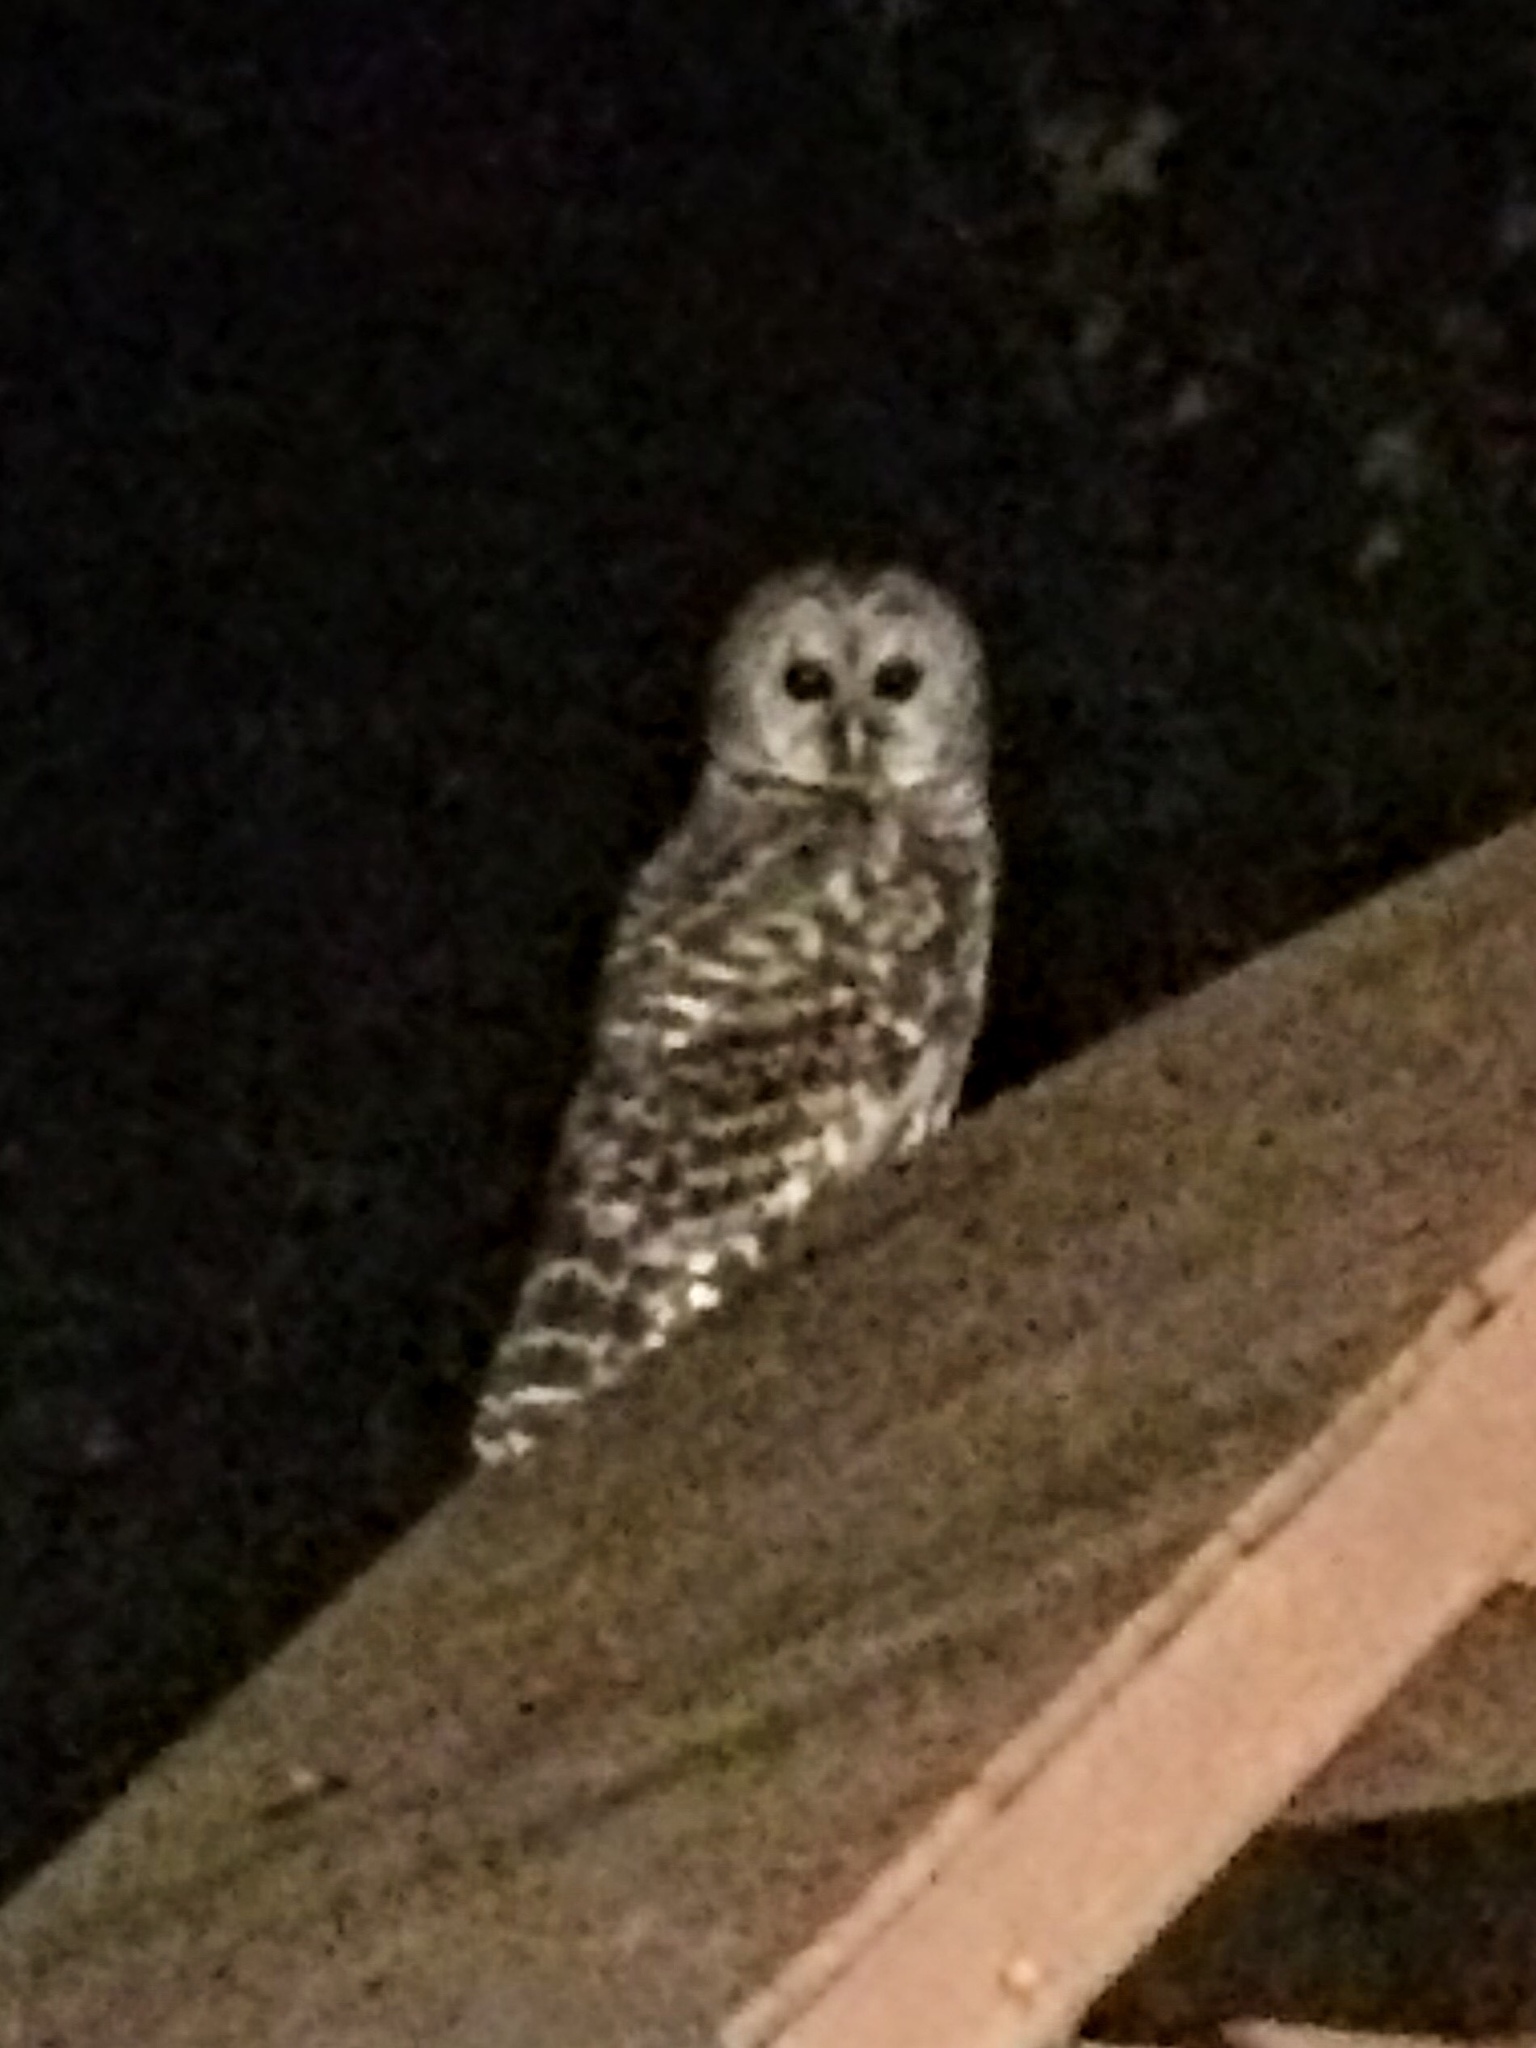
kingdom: Animalia
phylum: Chordata
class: Aves
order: Strigiformes
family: Strigidae
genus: Strix
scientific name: Strix varia
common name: Barred owl
